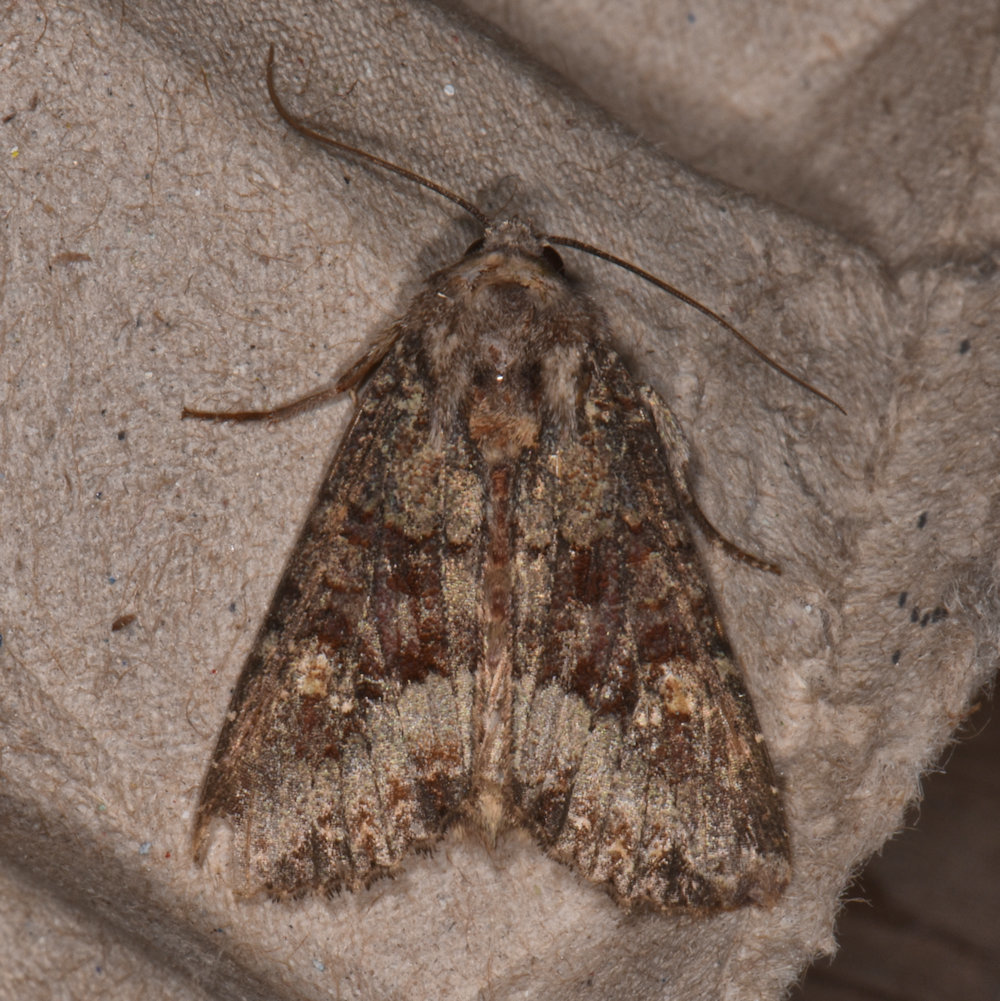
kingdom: Animalia
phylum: Arthropoda
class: Insecta
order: Lepidoptera
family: Noctuidae
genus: Apamea
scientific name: Apamea amputatrix
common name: Yellow-headed cutworm moth
